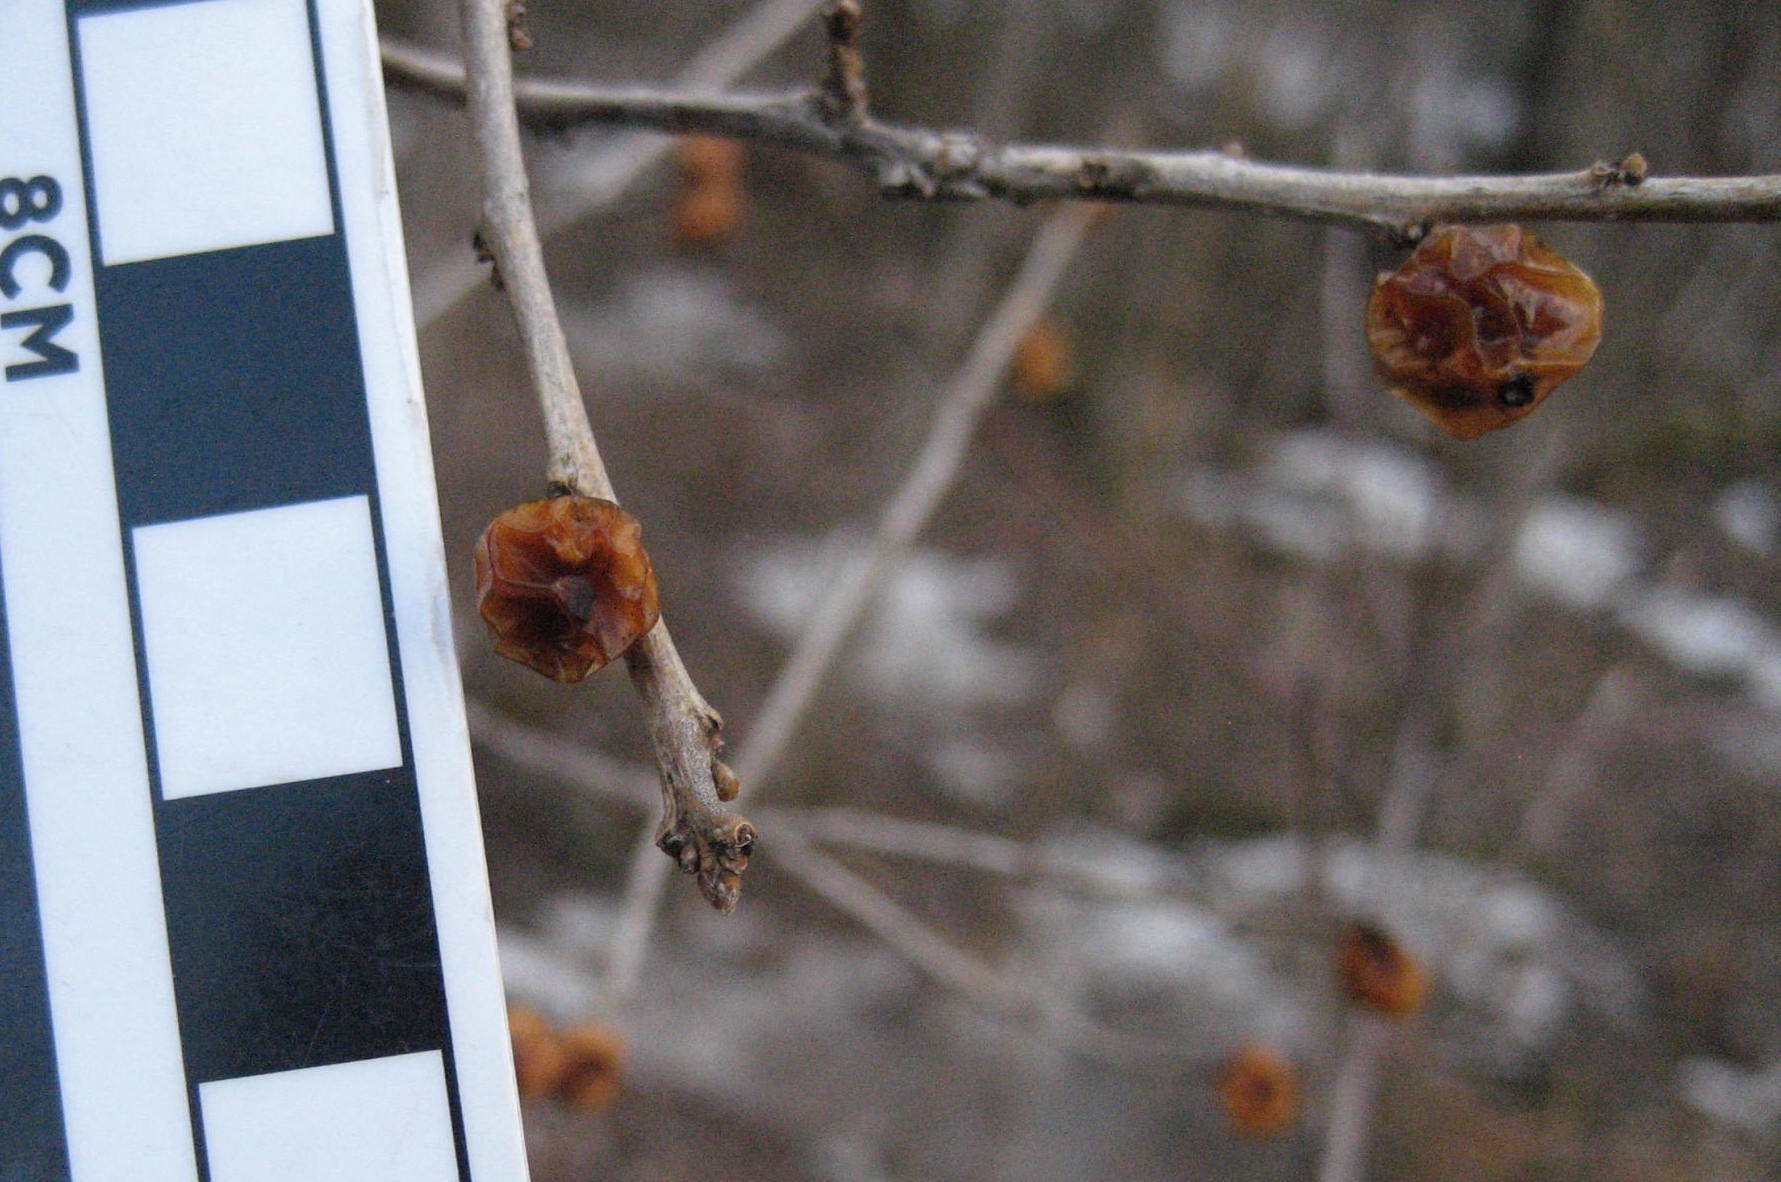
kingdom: Plantae
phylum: Tracheophyta
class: Magnoliopsida
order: Aquifoliales
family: Aquifoliaceae
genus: Ilex
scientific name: Ilex verticillata
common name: Virginia winterberry
